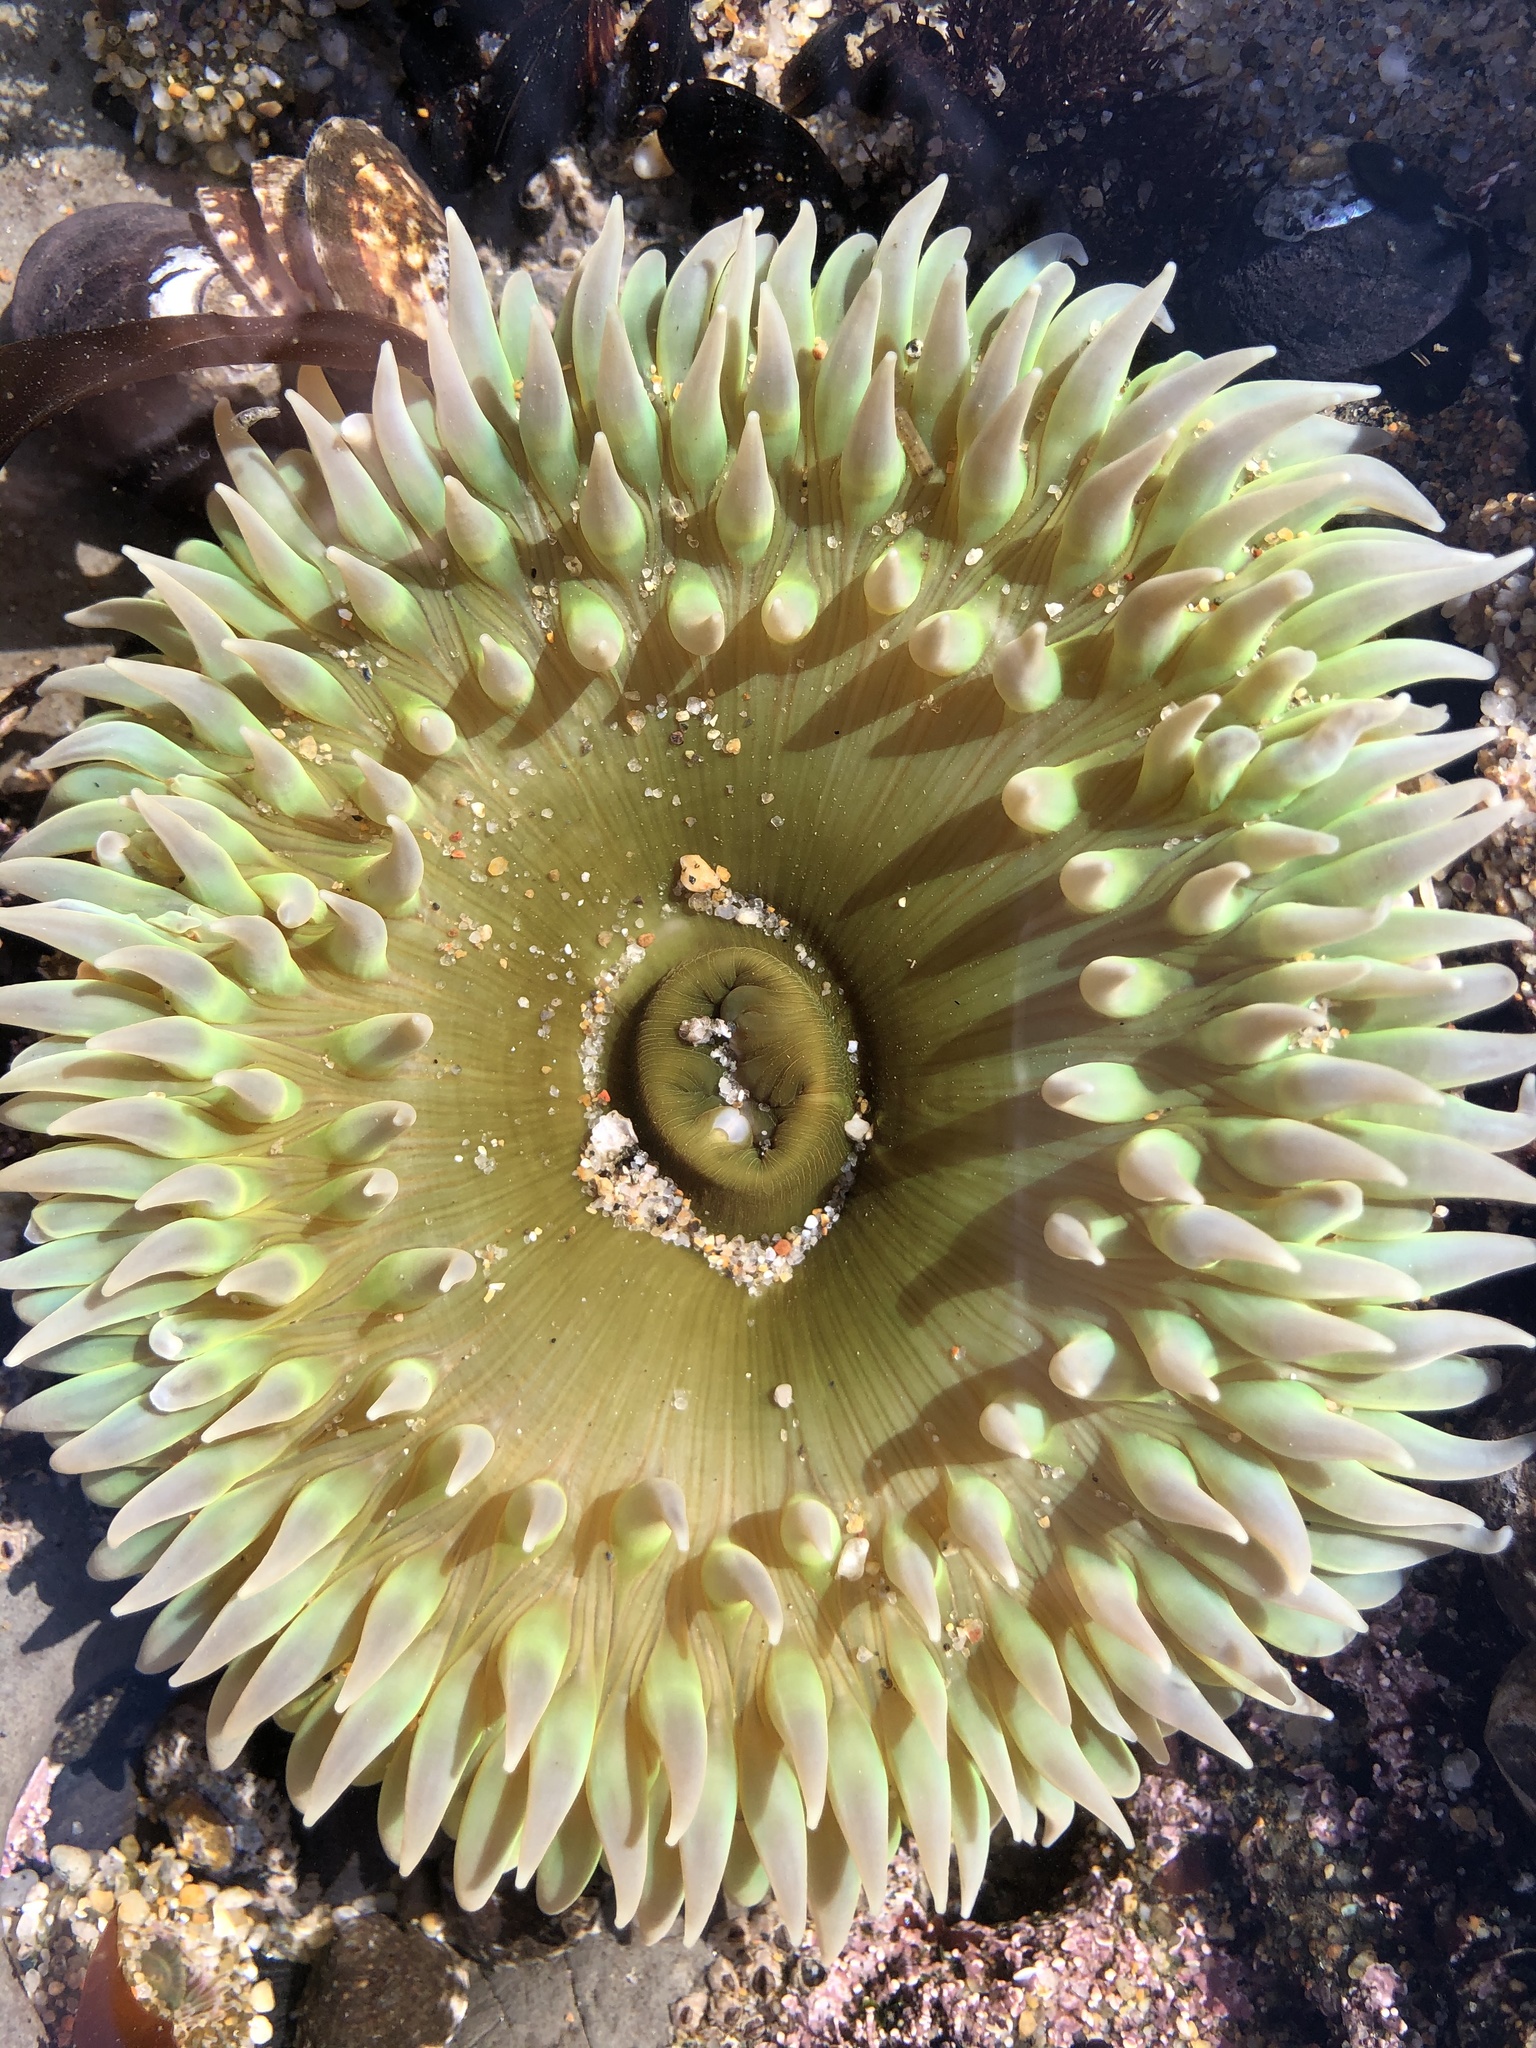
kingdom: Animalia
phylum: Cnidaria
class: Anthozoa
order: Actiniaria
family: Actiniidae
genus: Anthopleura
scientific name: Anthopleura xanthogrammica
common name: Giant green anemone
